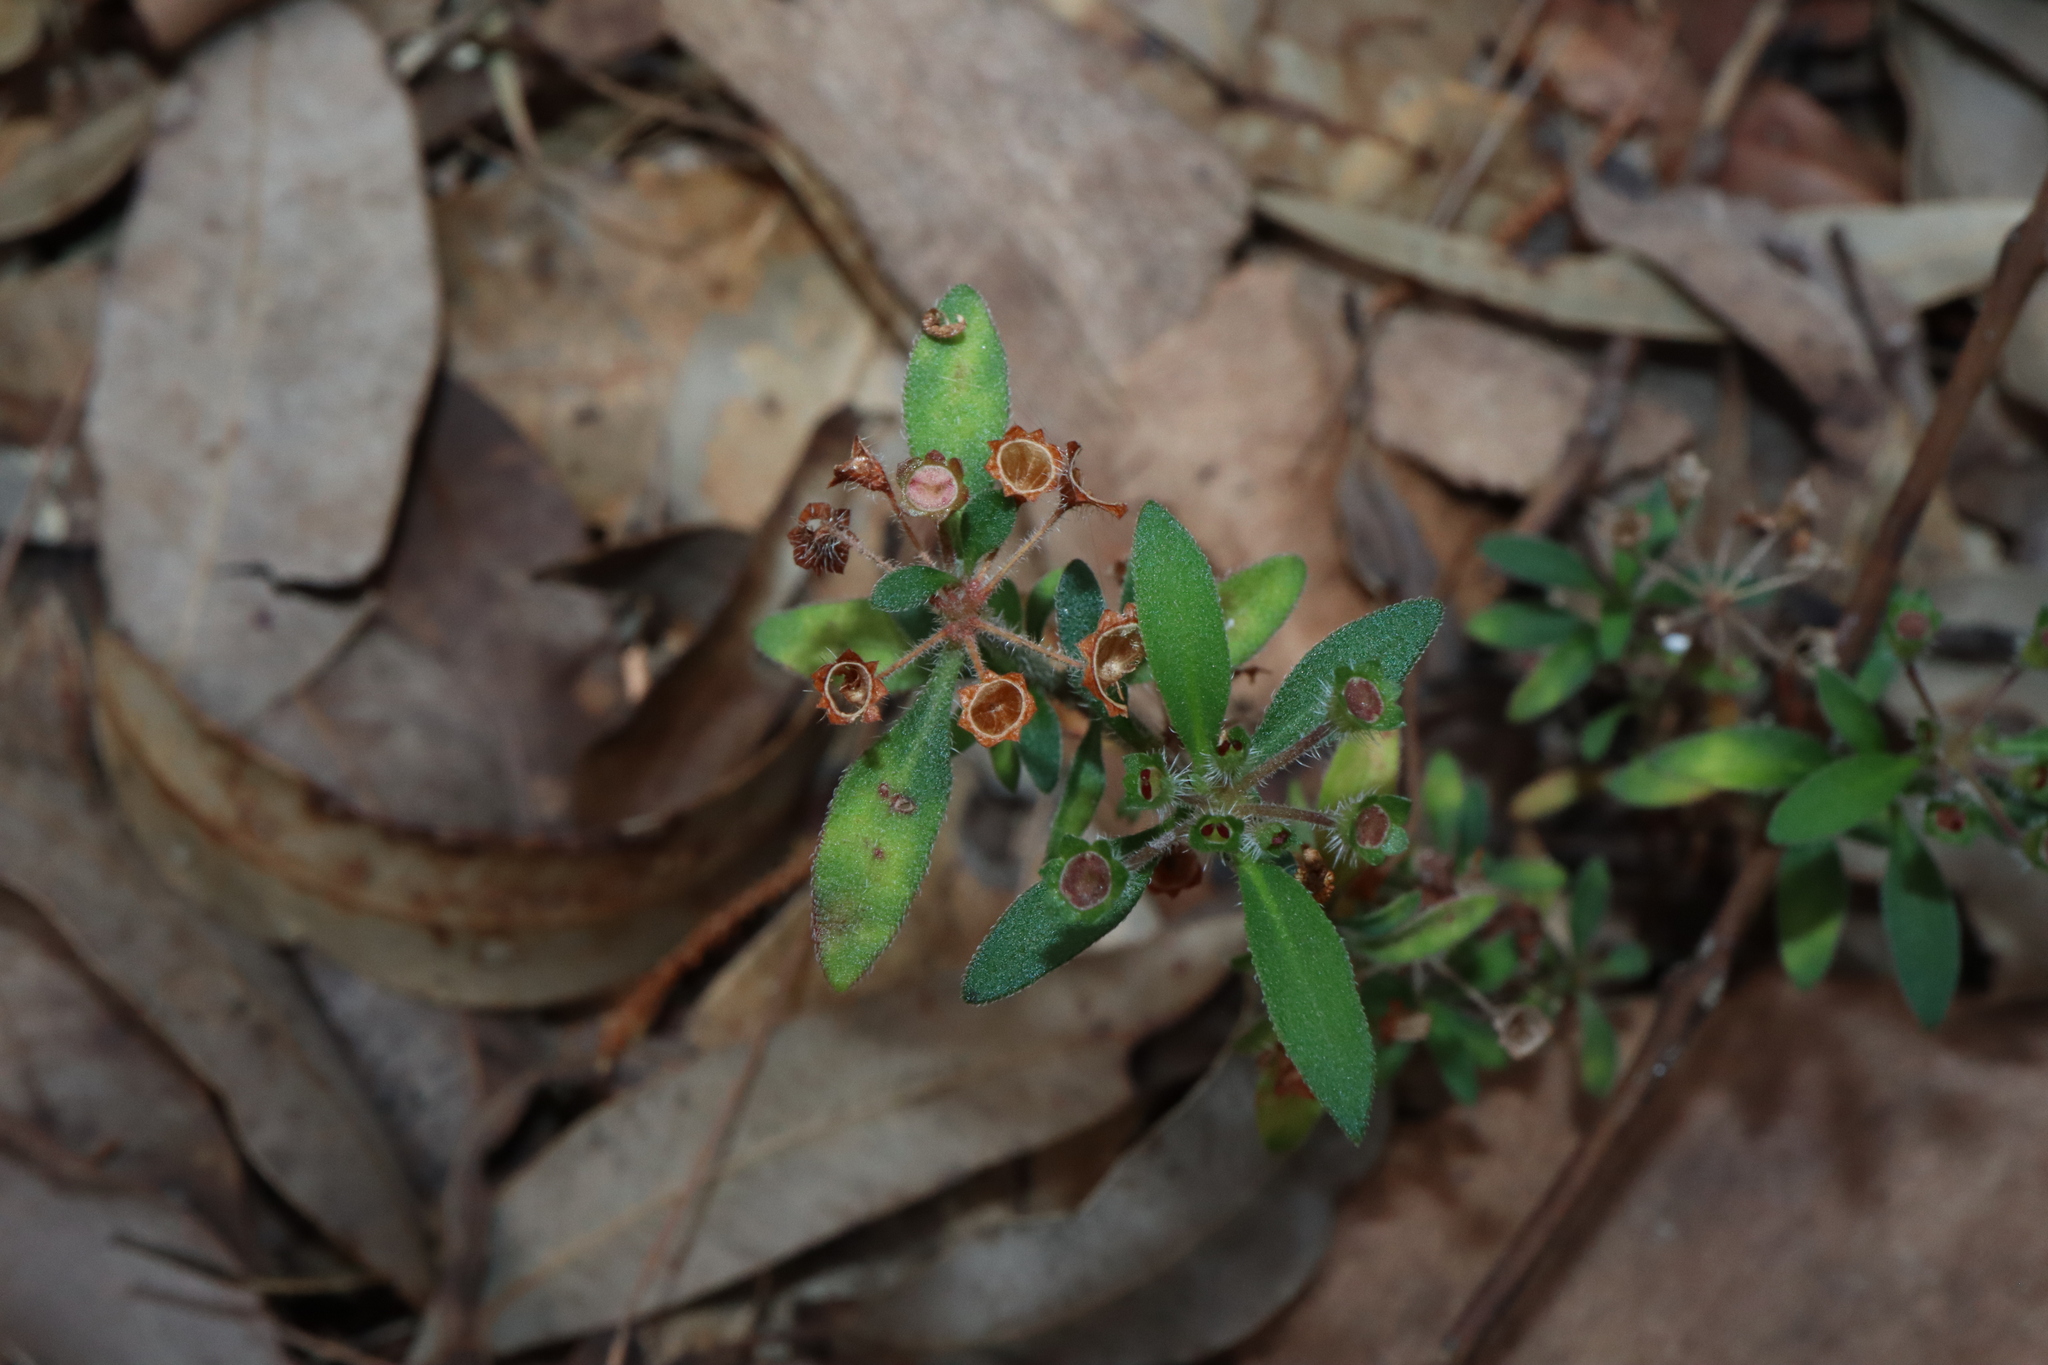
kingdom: Plantae
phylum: Tracheophyta
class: Magnoliopsida
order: Gentianales
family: Rubiaceae
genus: Pomax
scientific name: Pomax umbellata
